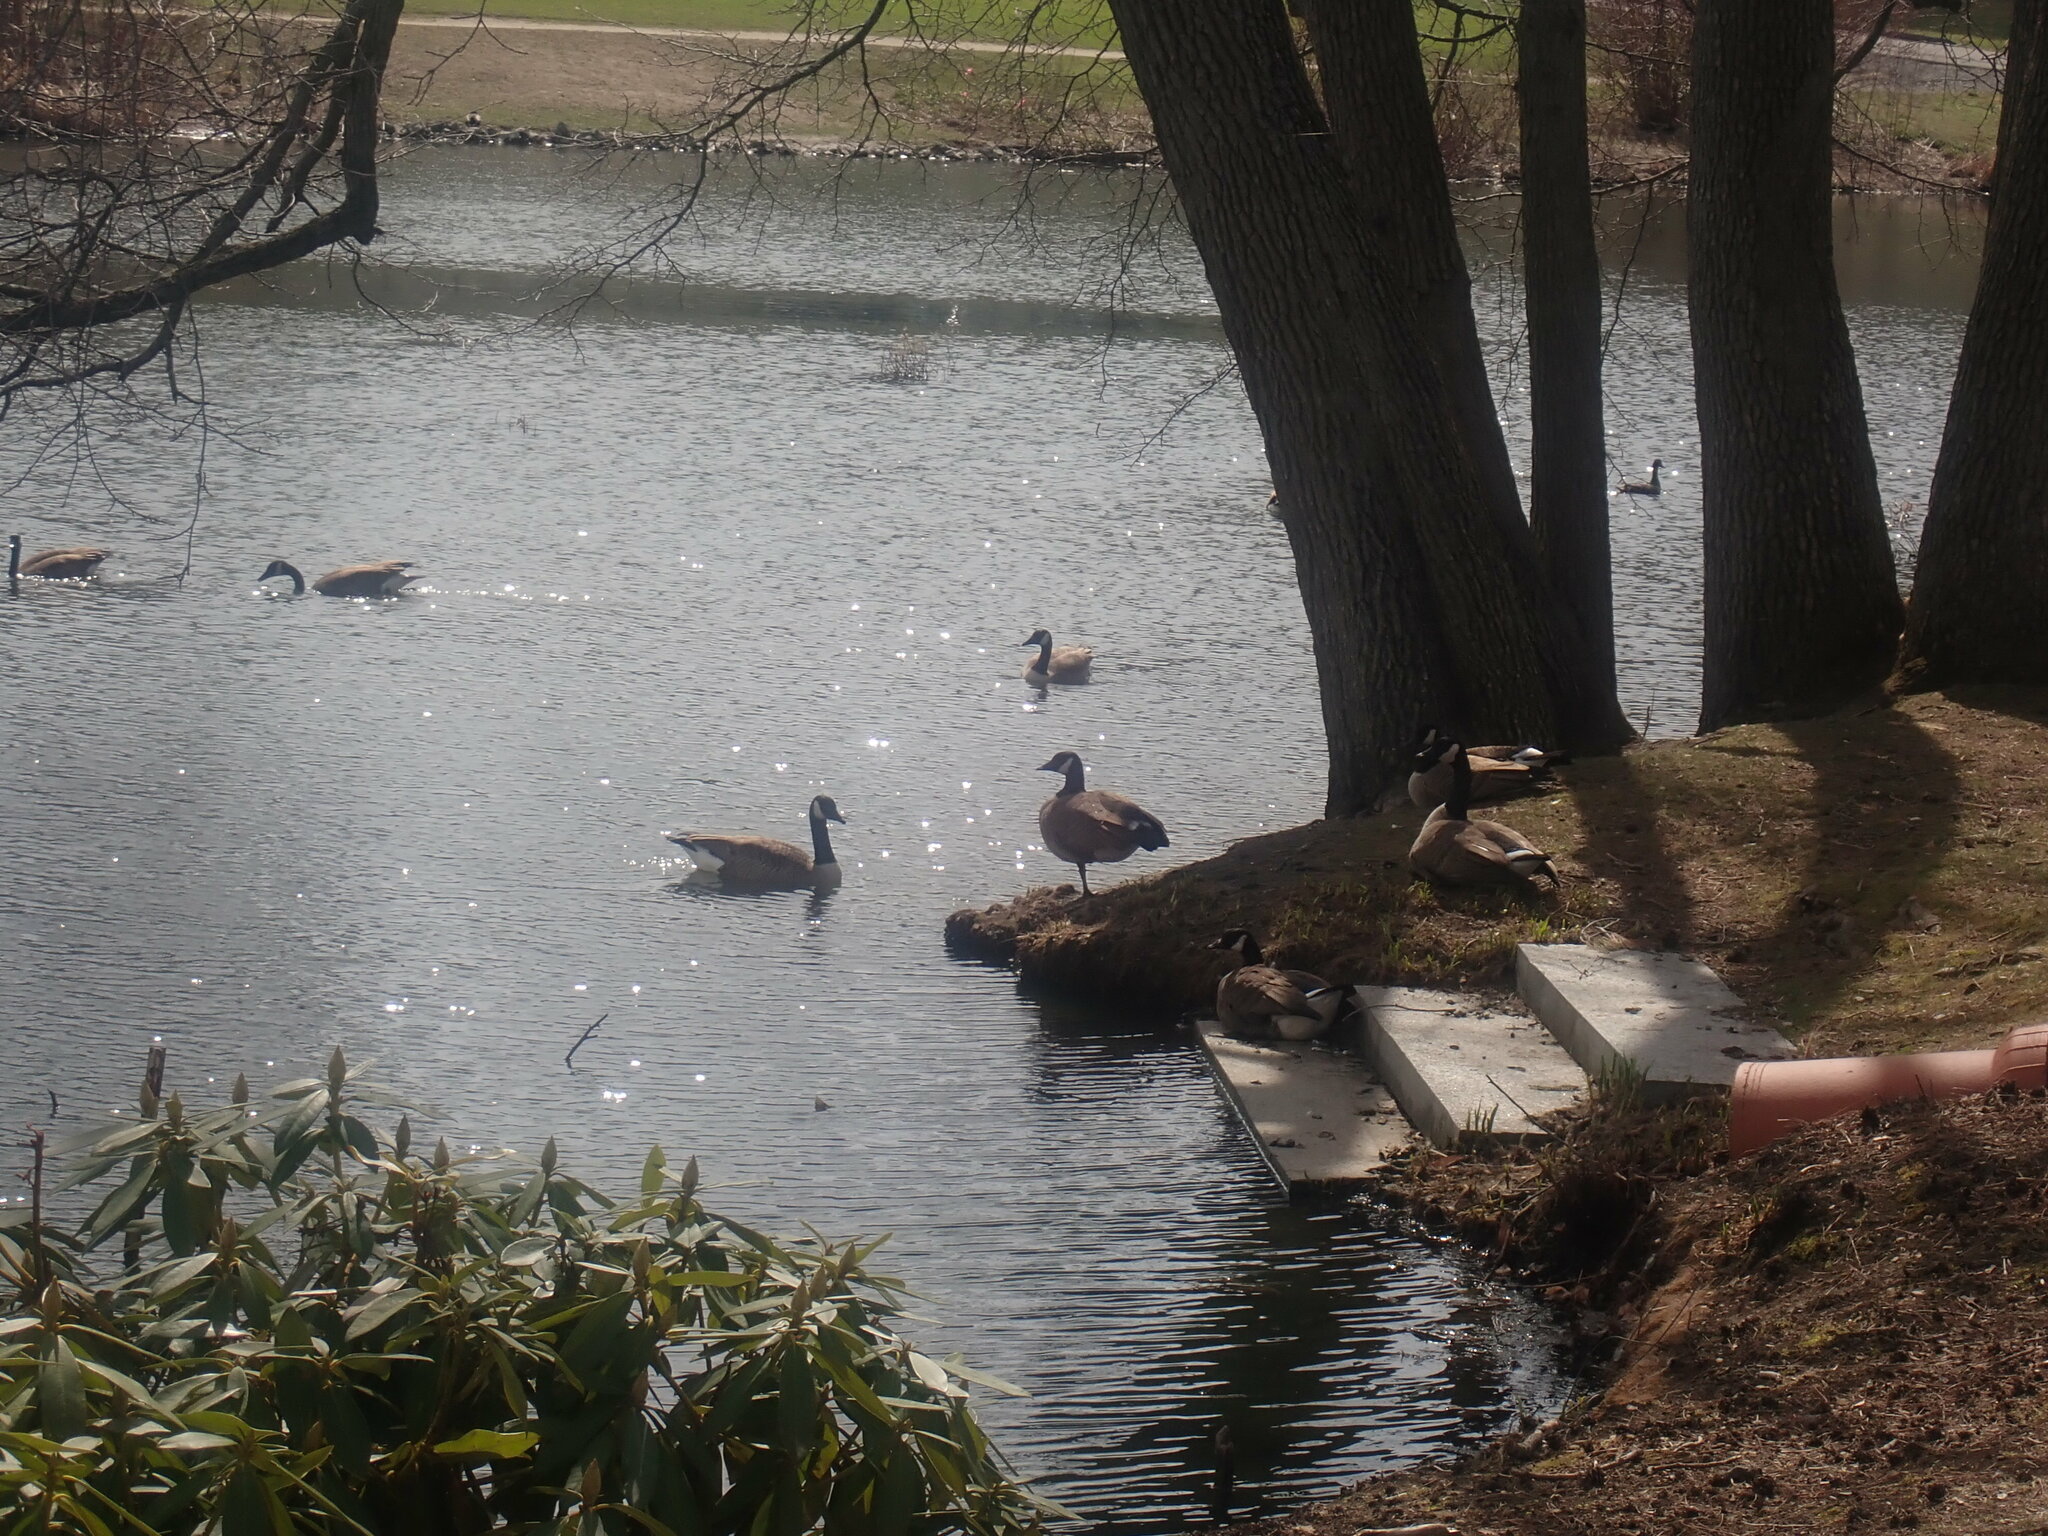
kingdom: Animalia
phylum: Chordata
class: Aves
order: Anseriformes
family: Anatidae
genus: Branta
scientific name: Branta canadensis
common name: Canada goose
